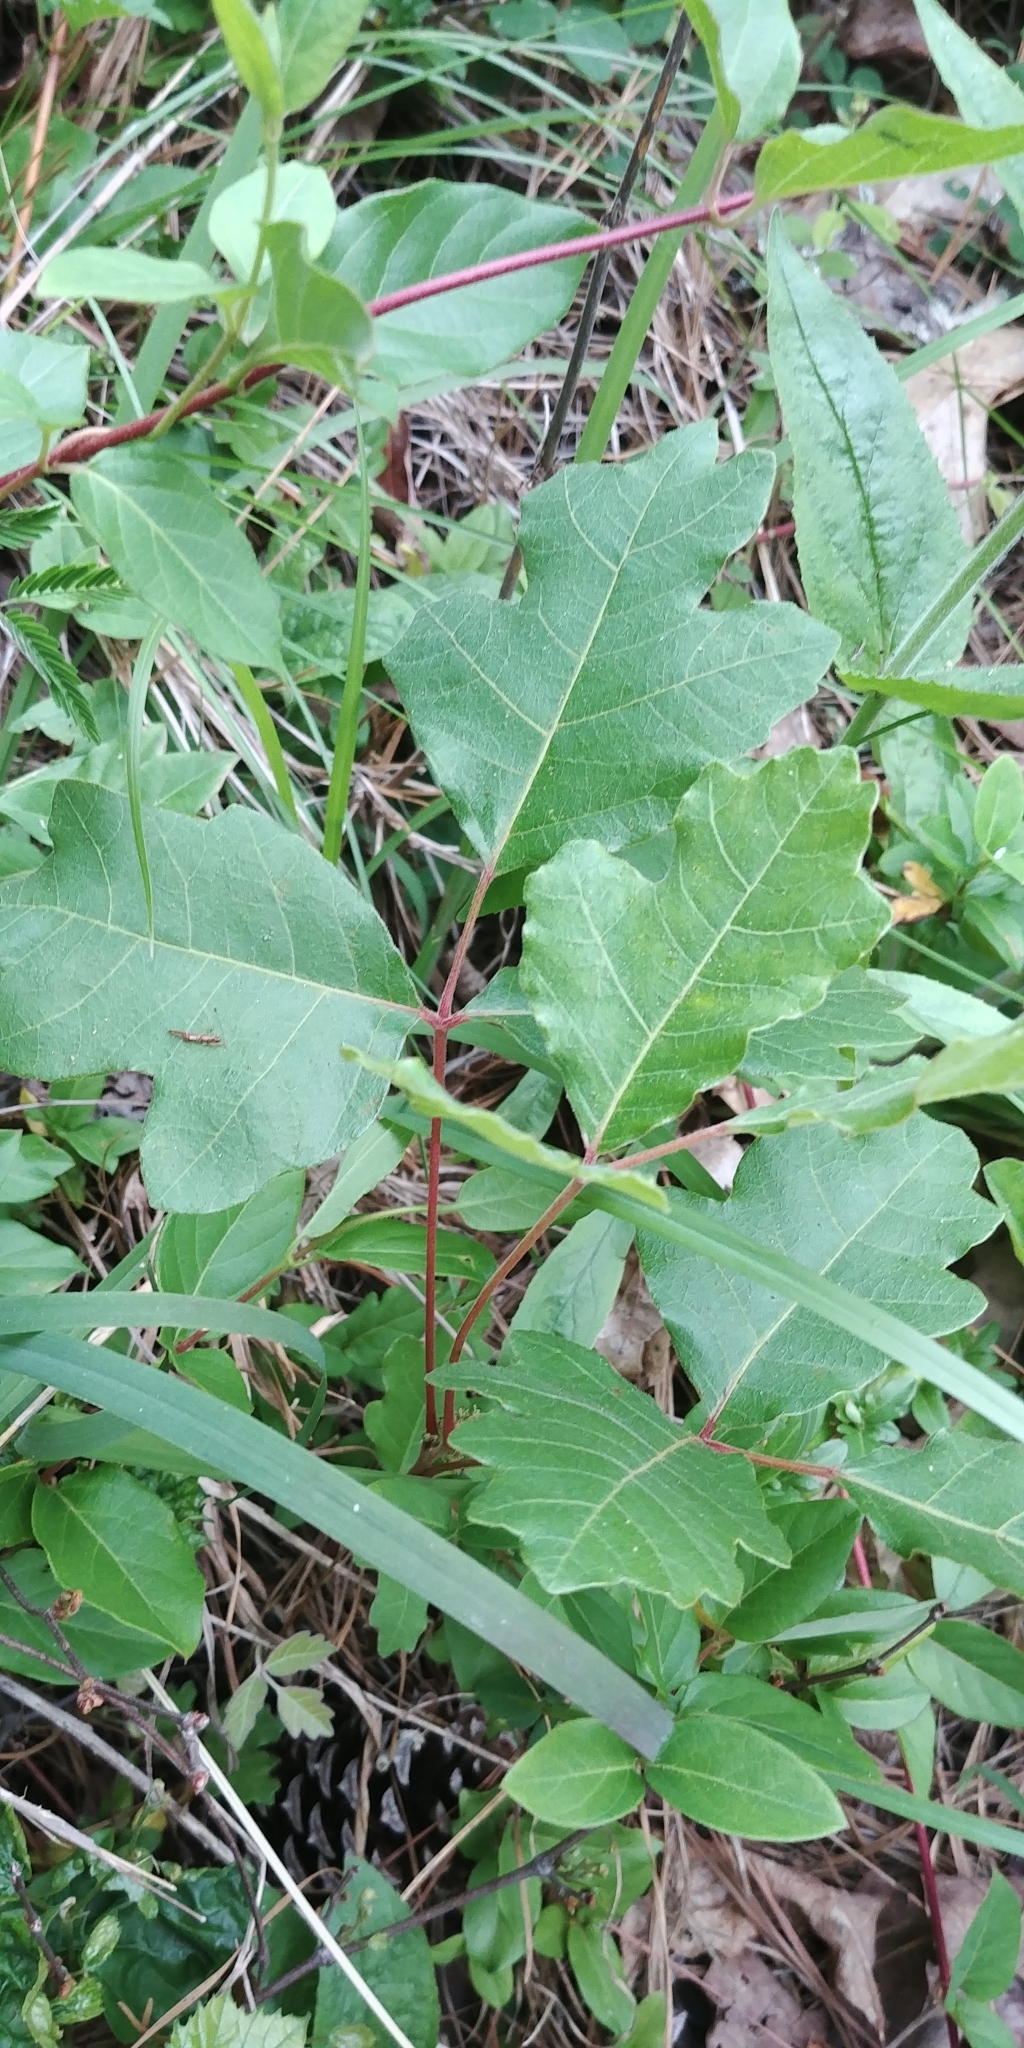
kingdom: Plantae
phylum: Tracheophyta
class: Magnoliopsida
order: Sapindales
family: Anacardiaceae
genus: Toxicodendron
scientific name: Toxicodendron pubescens
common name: Eastern poison-oak
